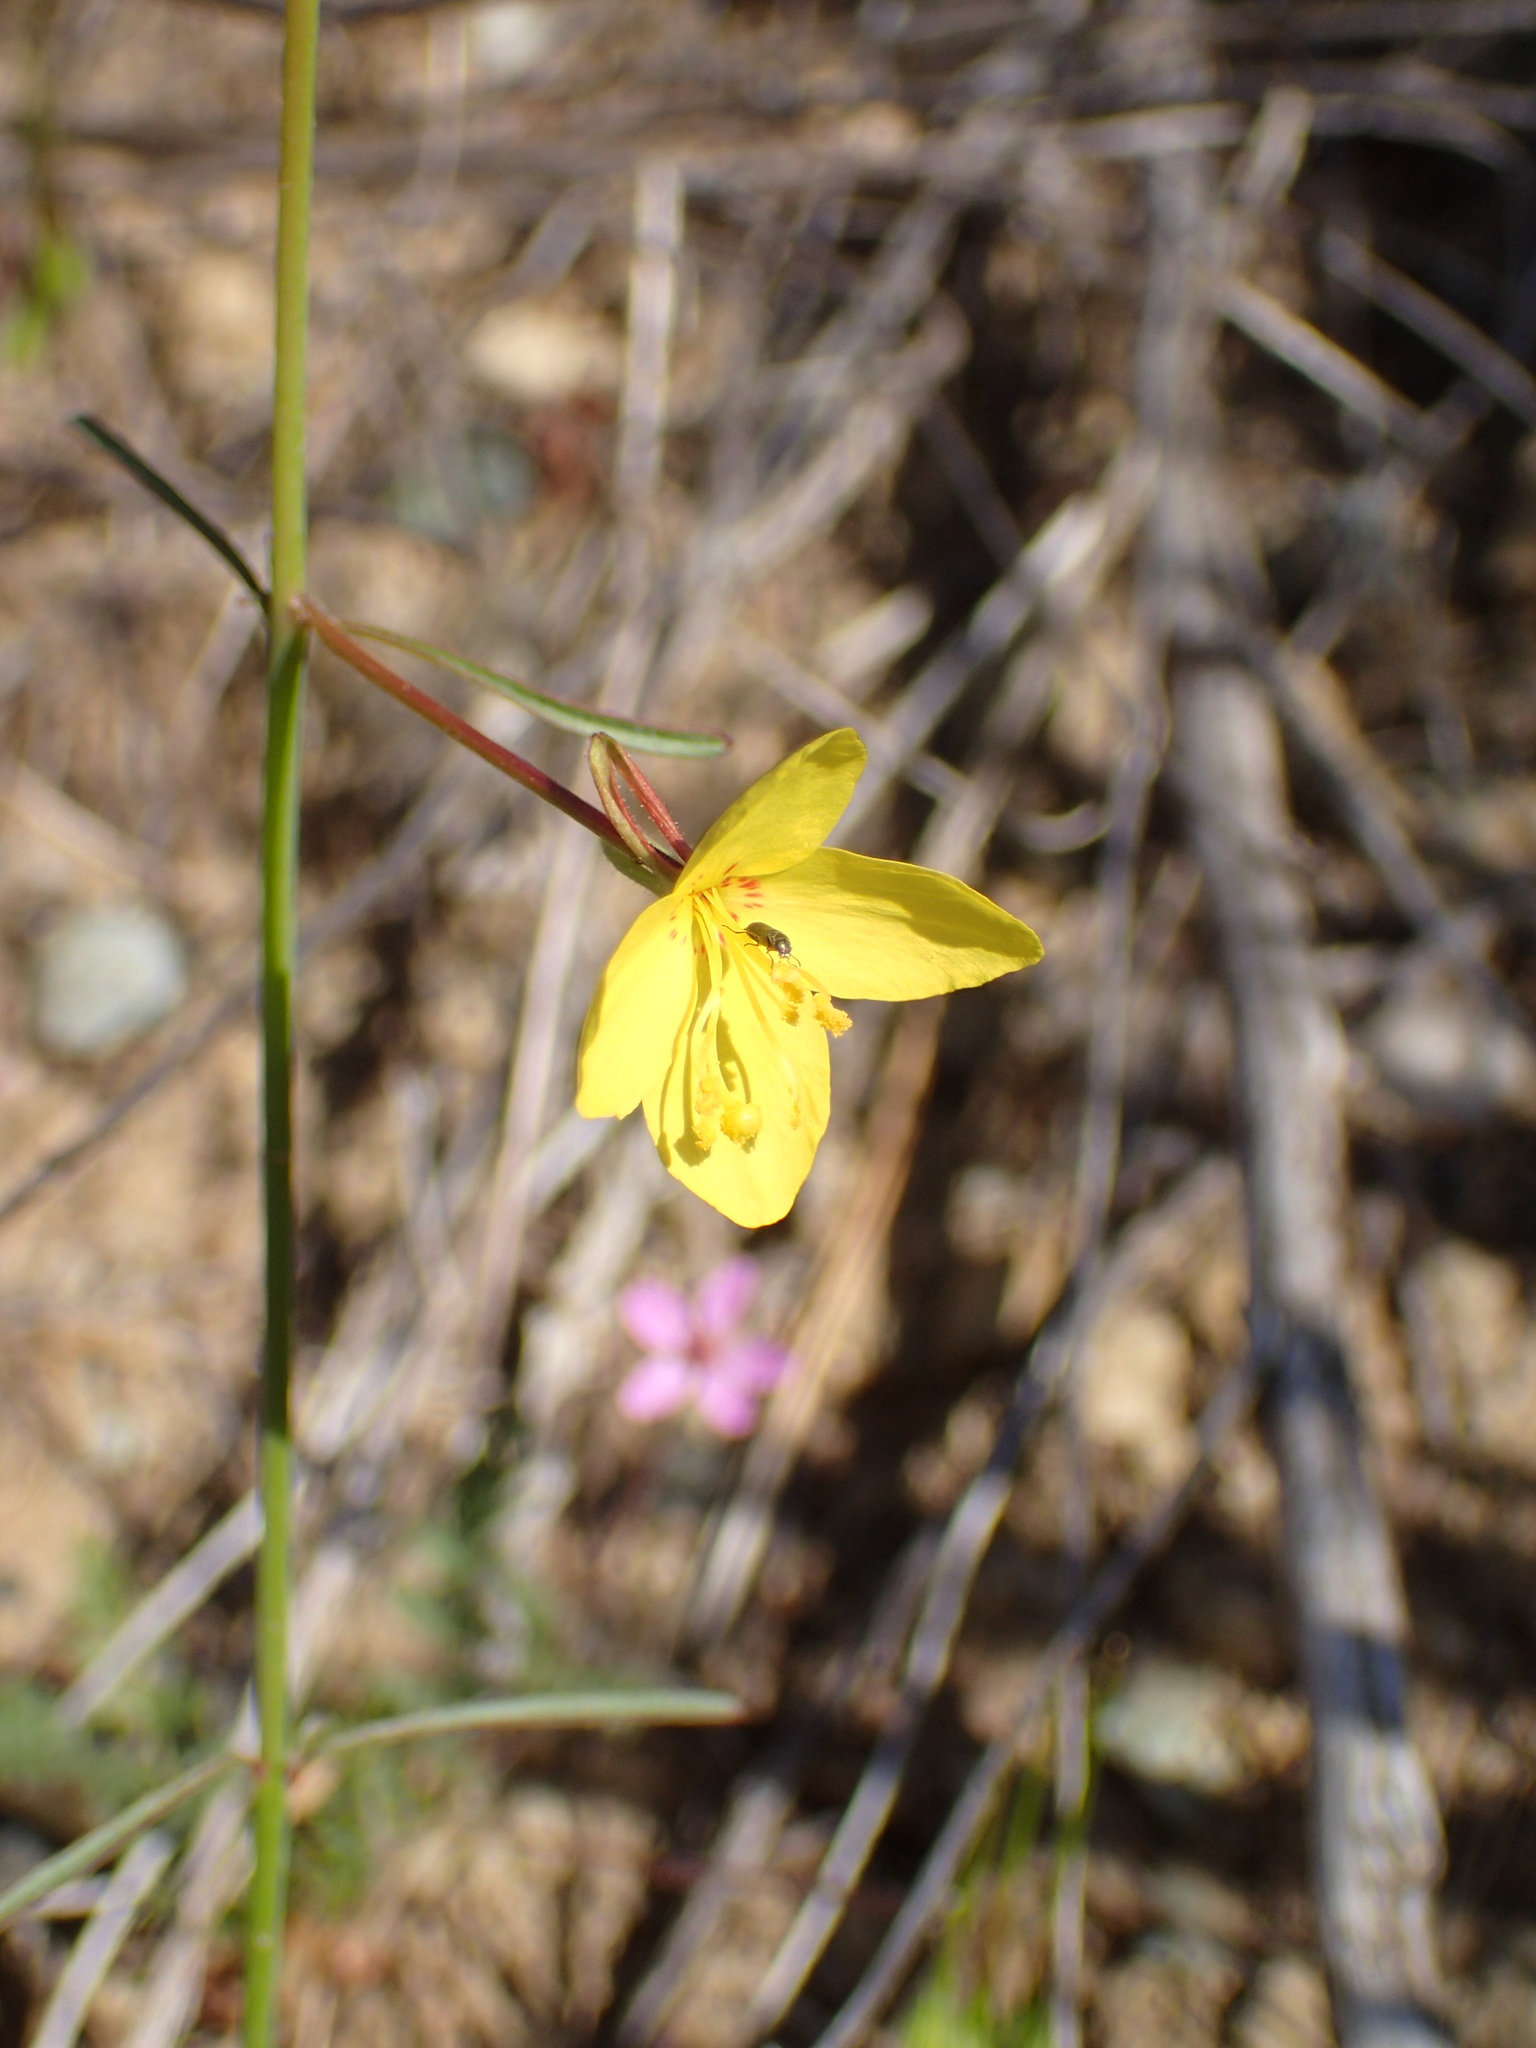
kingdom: Plantae
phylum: Tracheophyta
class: Magnoliopsida
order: Myrtales
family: Onagraceae
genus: Eulobus
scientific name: Eulobus californicus
